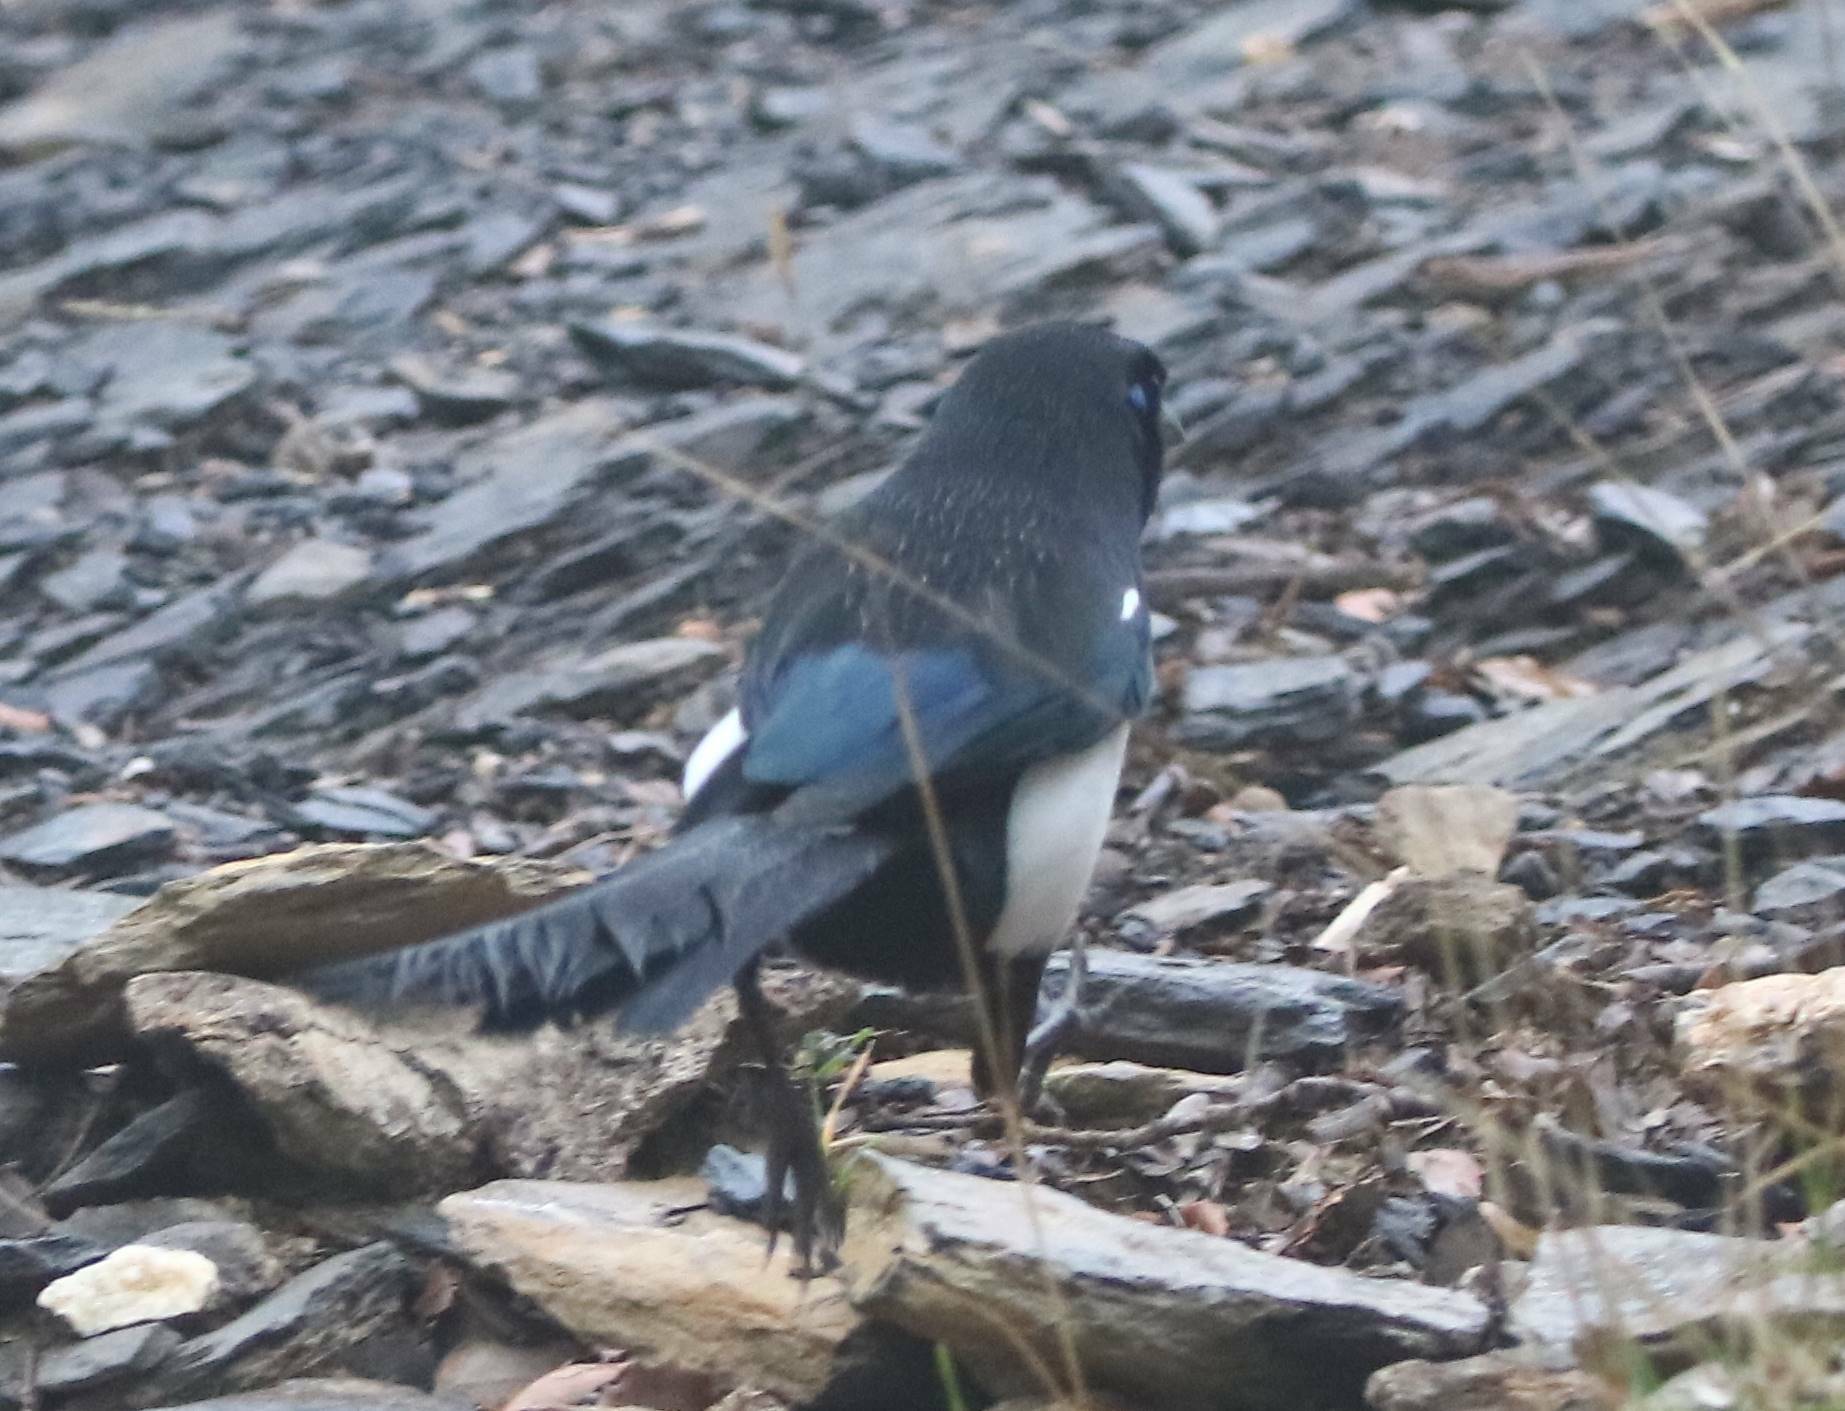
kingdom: Animalia
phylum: Chordata
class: Aves
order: Passeriformes
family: Corvidae
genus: Pica
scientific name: Pica mauritanica
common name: Maghreb magpie
